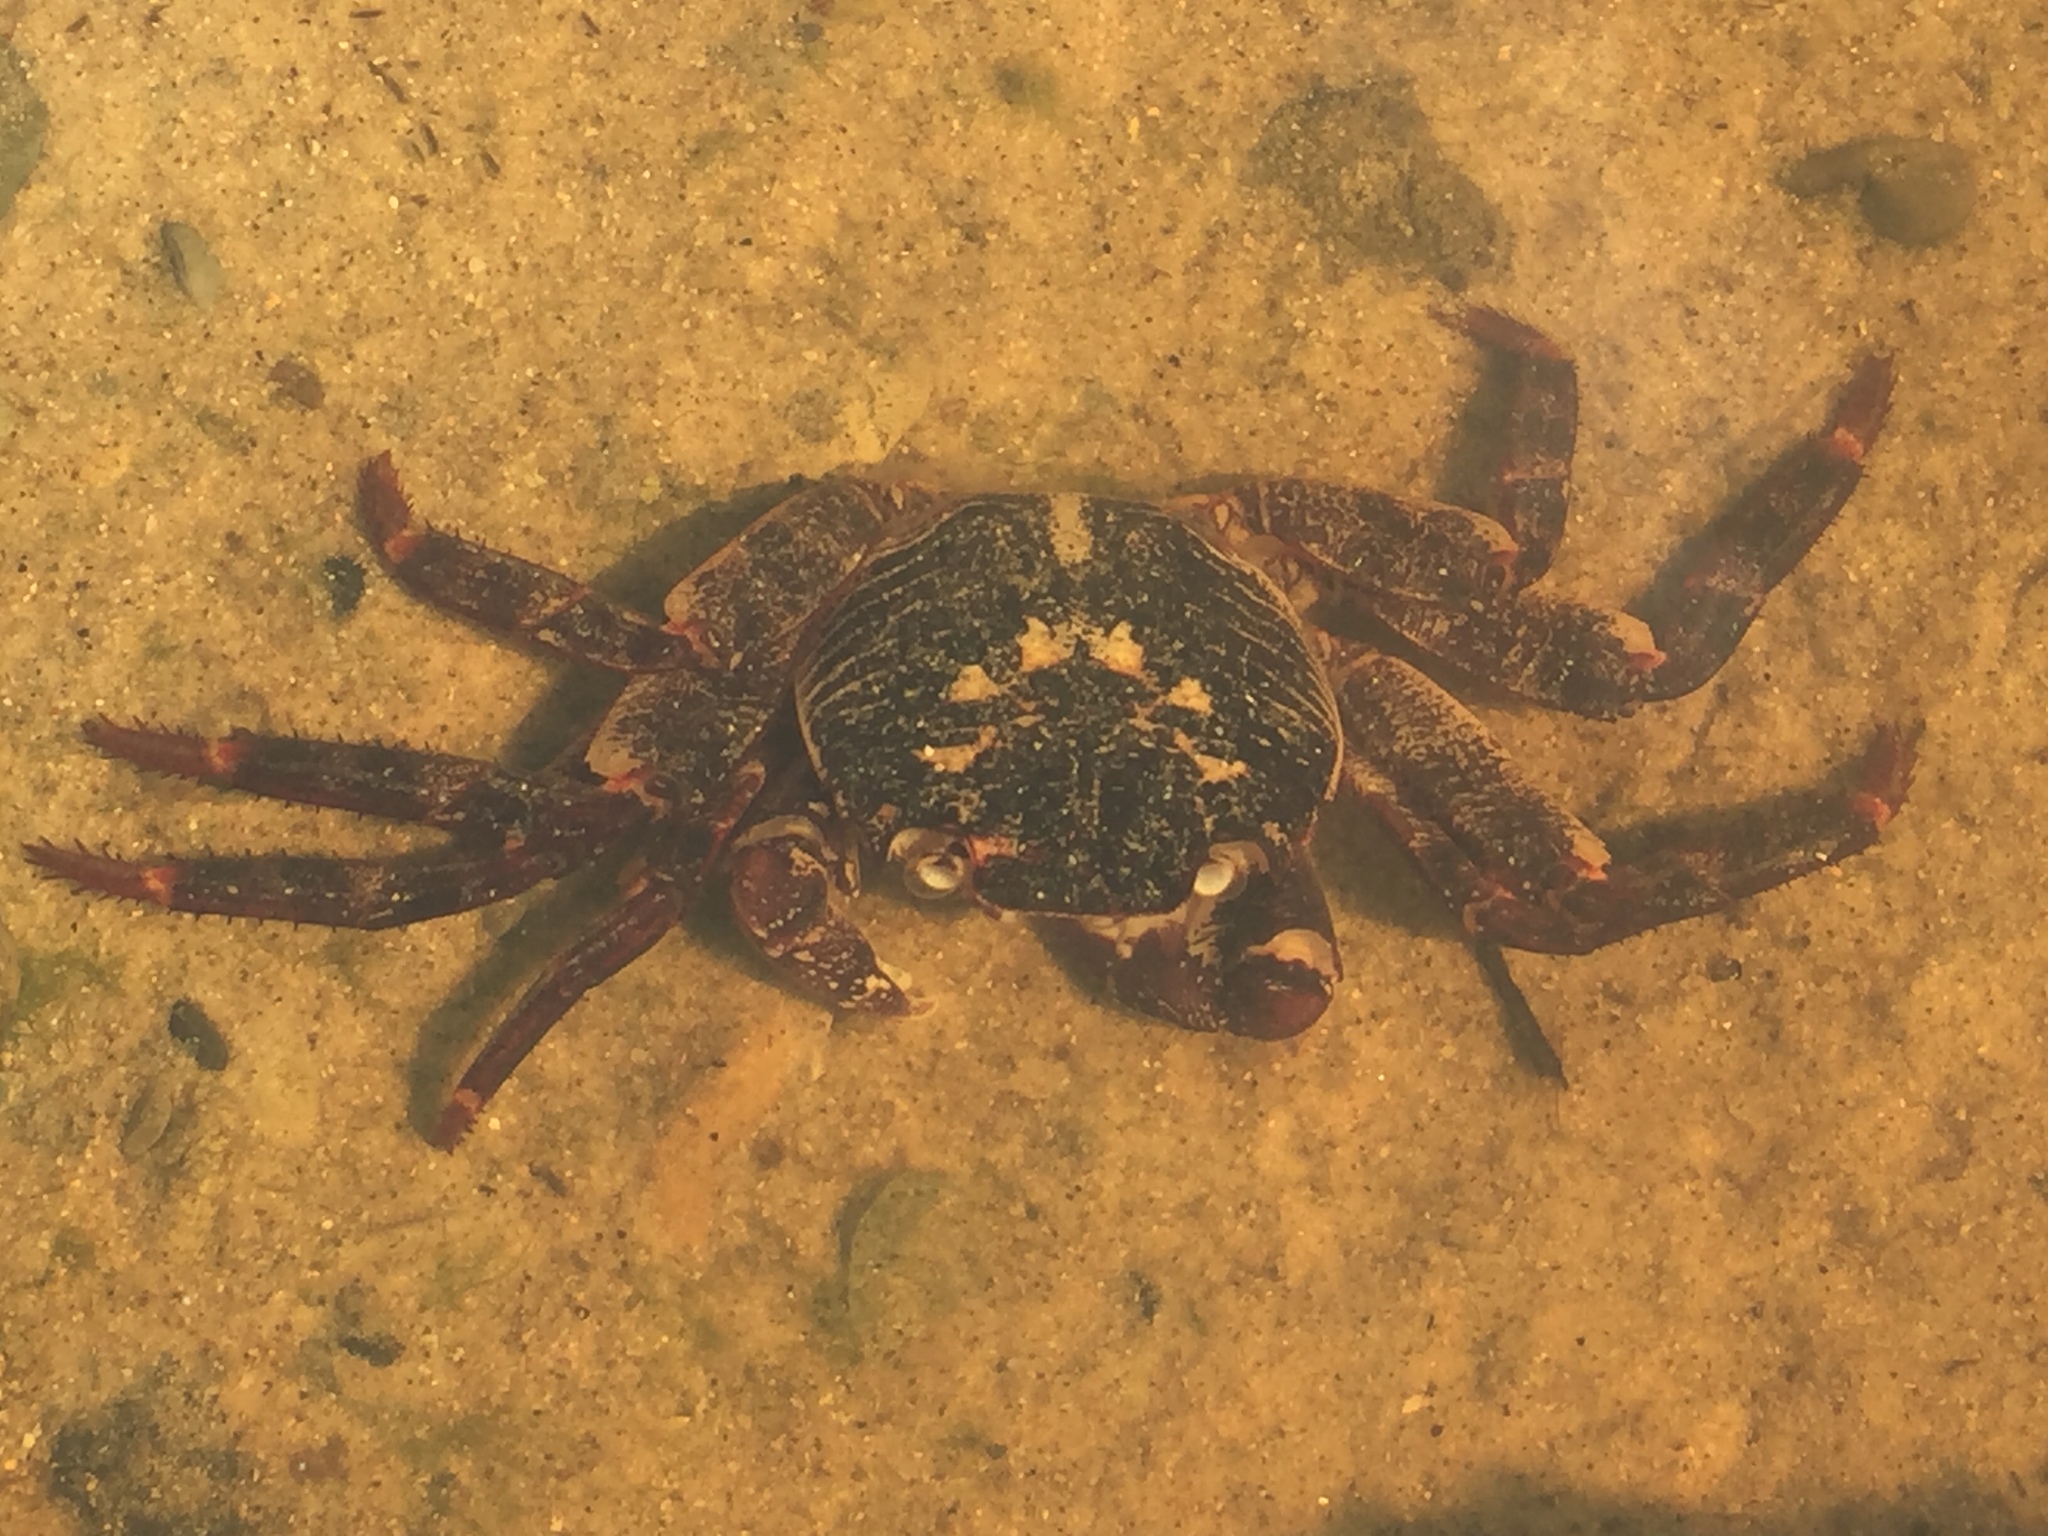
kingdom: Animalia
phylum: Arthropoda
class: Malacostraca
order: Decapoda
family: Grapsidae
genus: Leptograpsus
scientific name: Leptograpsus variegatus
